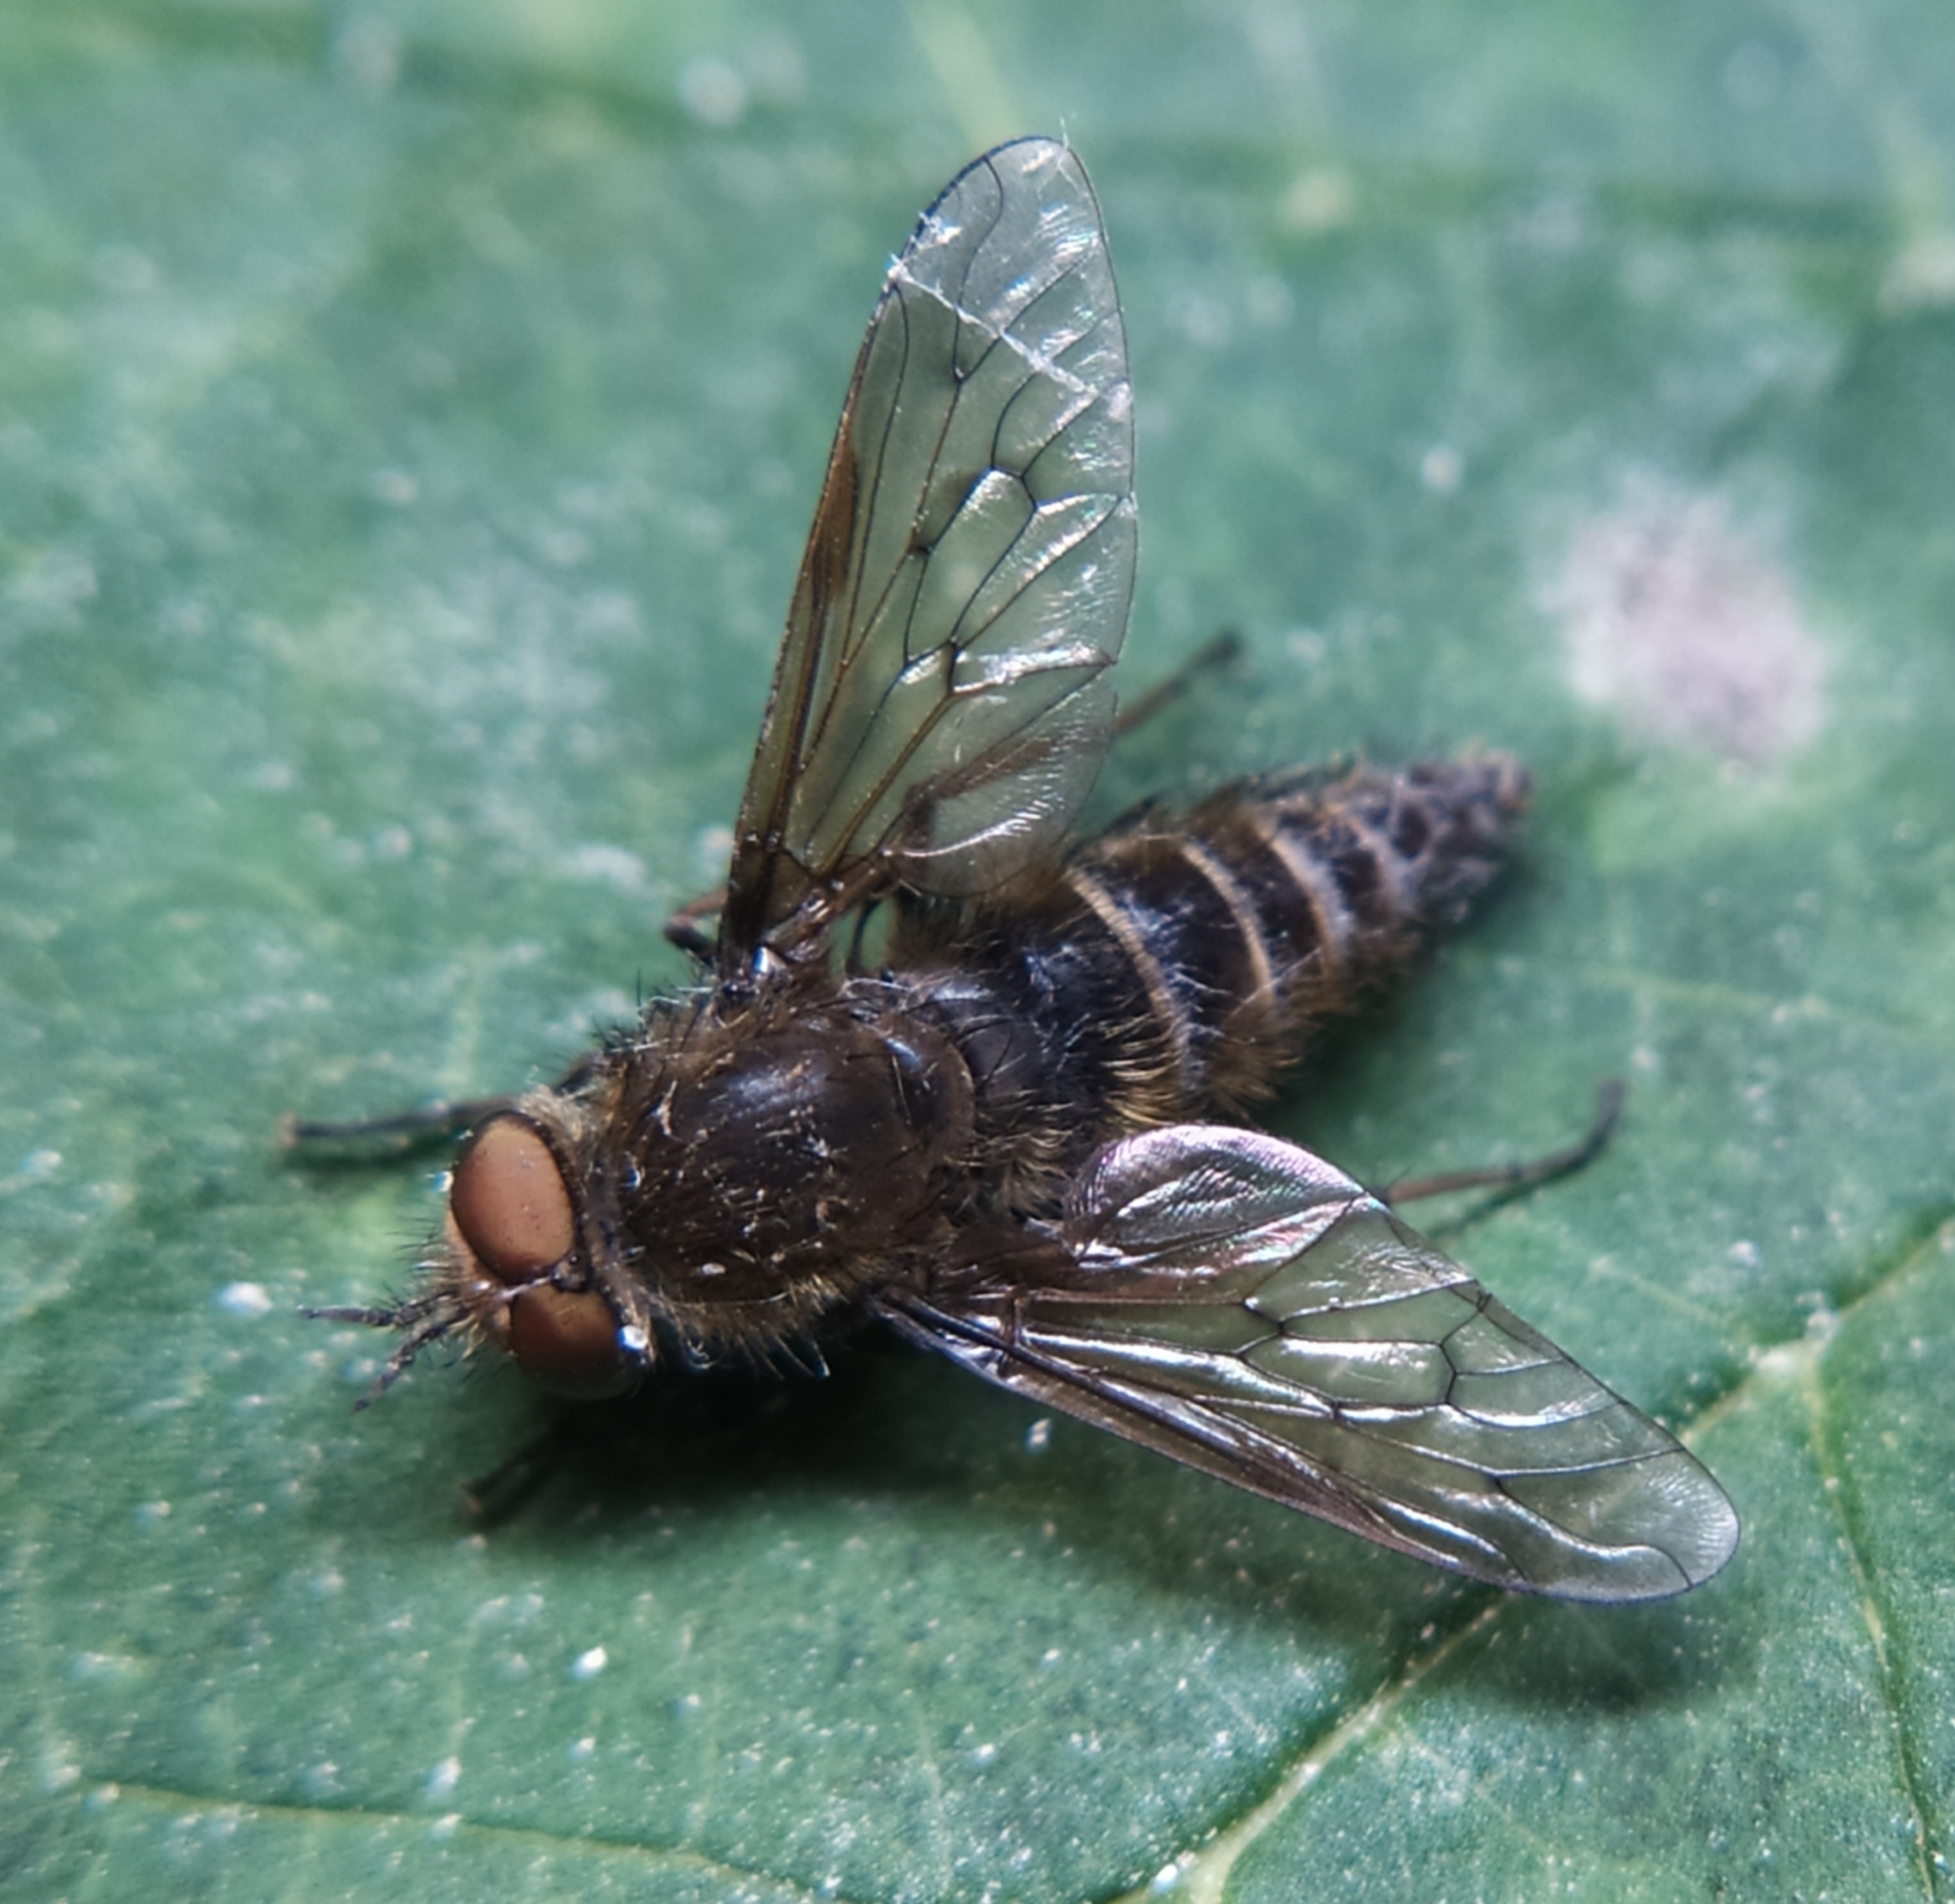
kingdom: Animalia
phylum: Arthropoda
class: Insecta
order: Diptera
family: Therevidae
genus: Thereva
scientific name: Thereva
